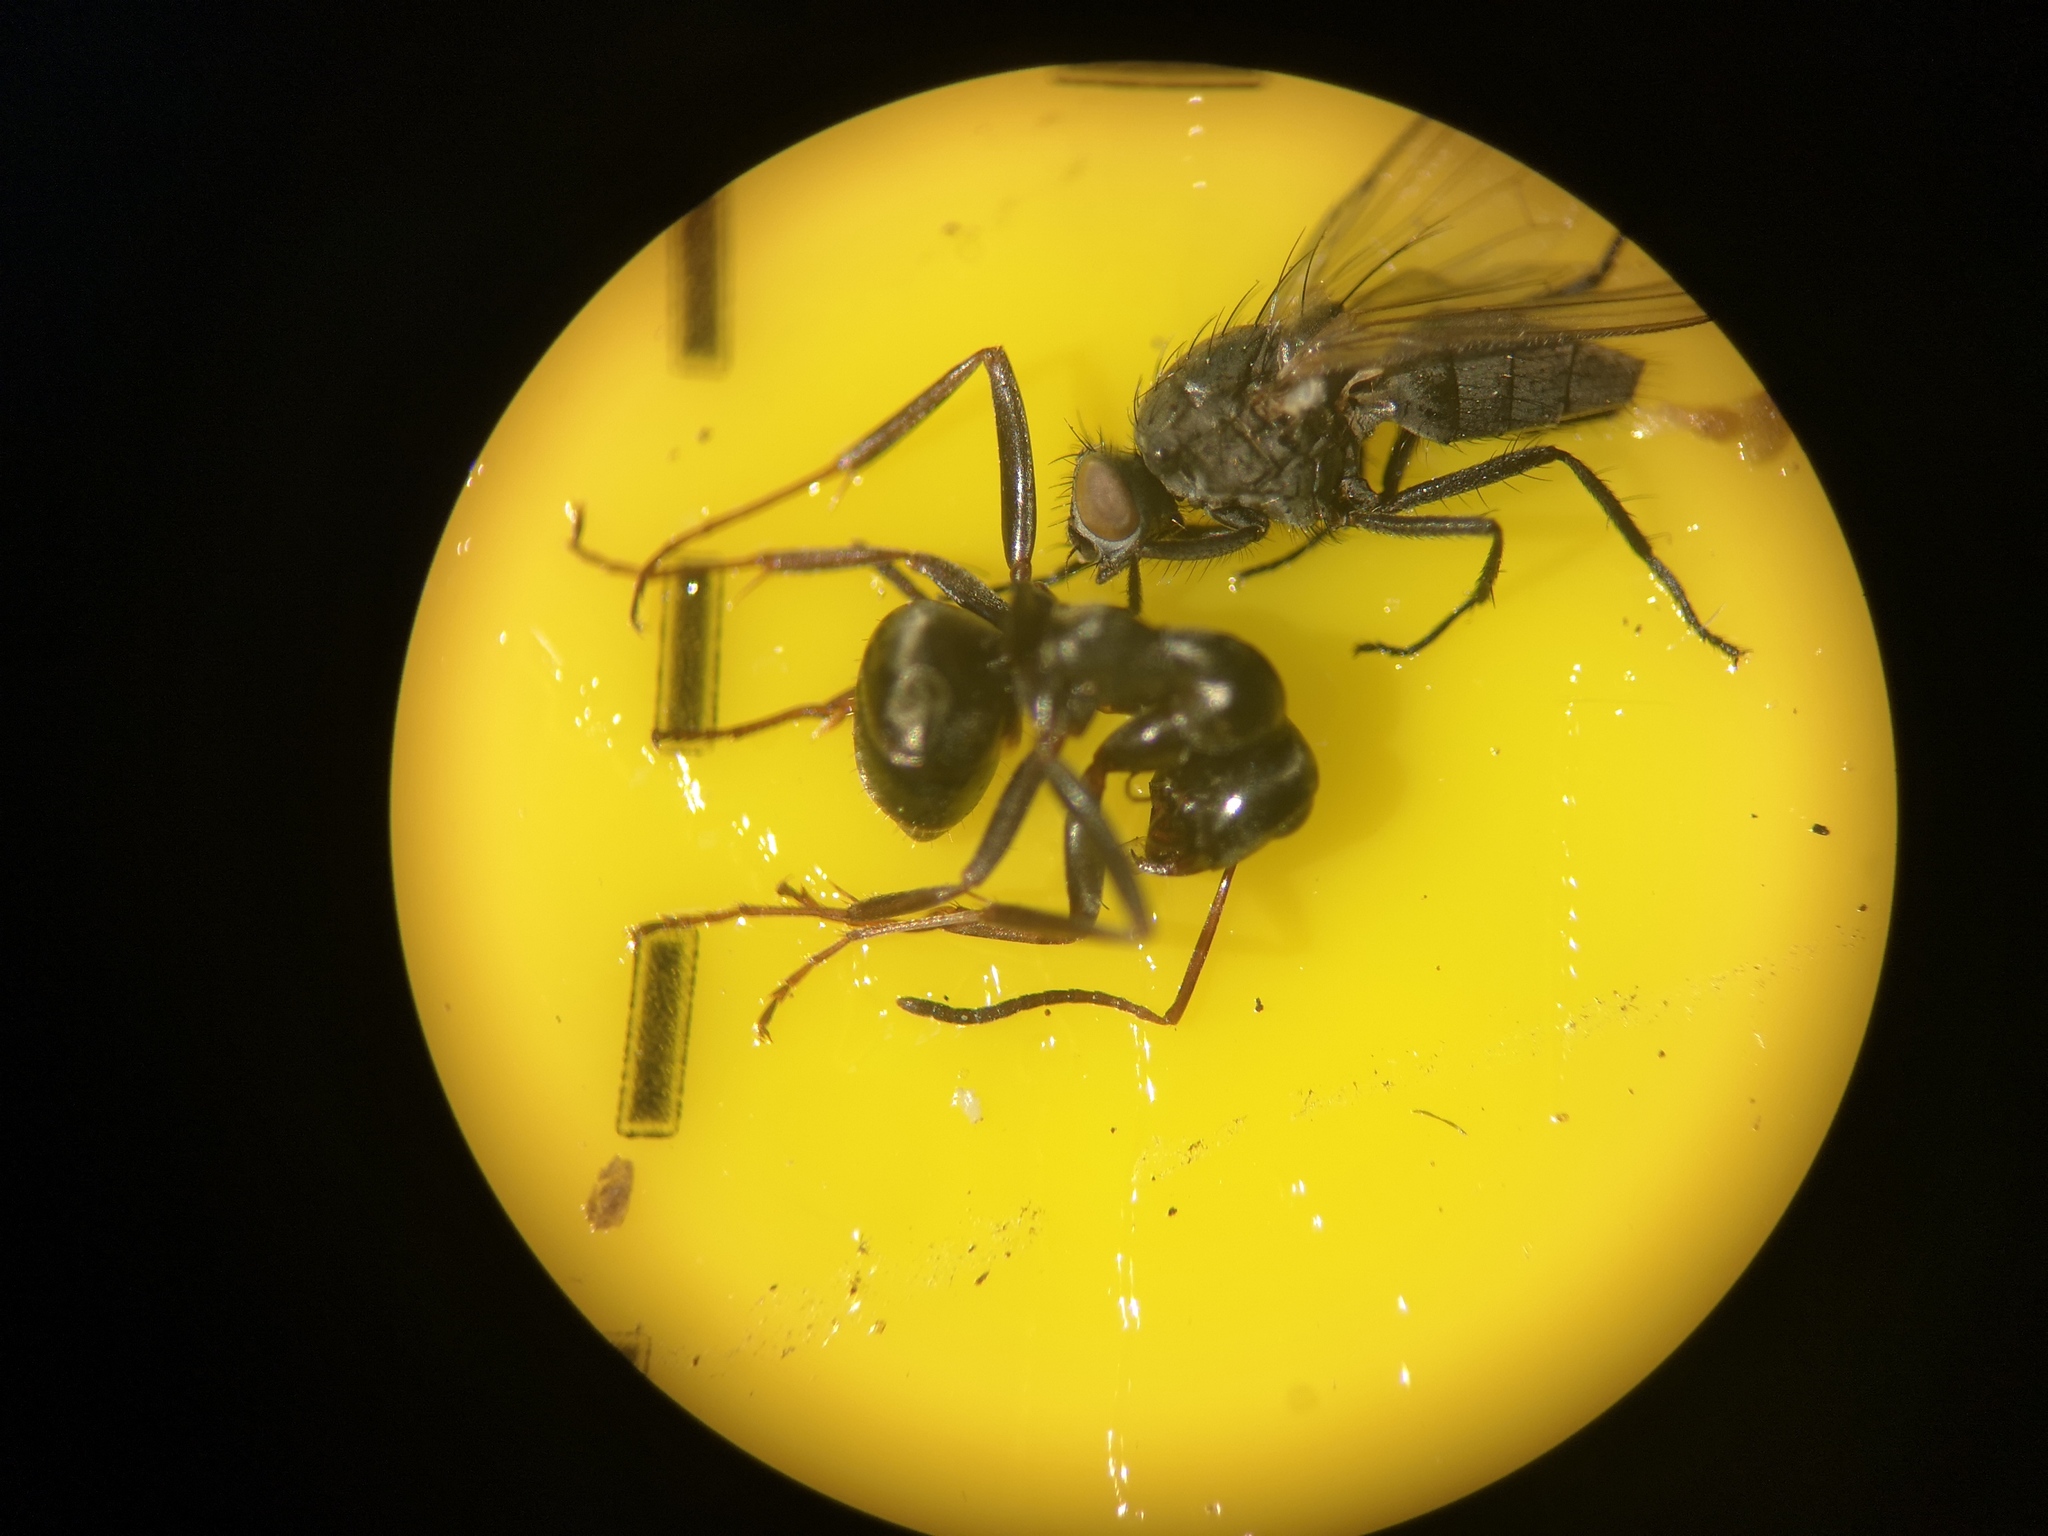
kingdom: Animalia
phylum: Arthropoda
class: Insecta
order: Hymenoptera
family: Formicidae
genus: Formica
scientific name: Formica fusca
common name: Silky ant
